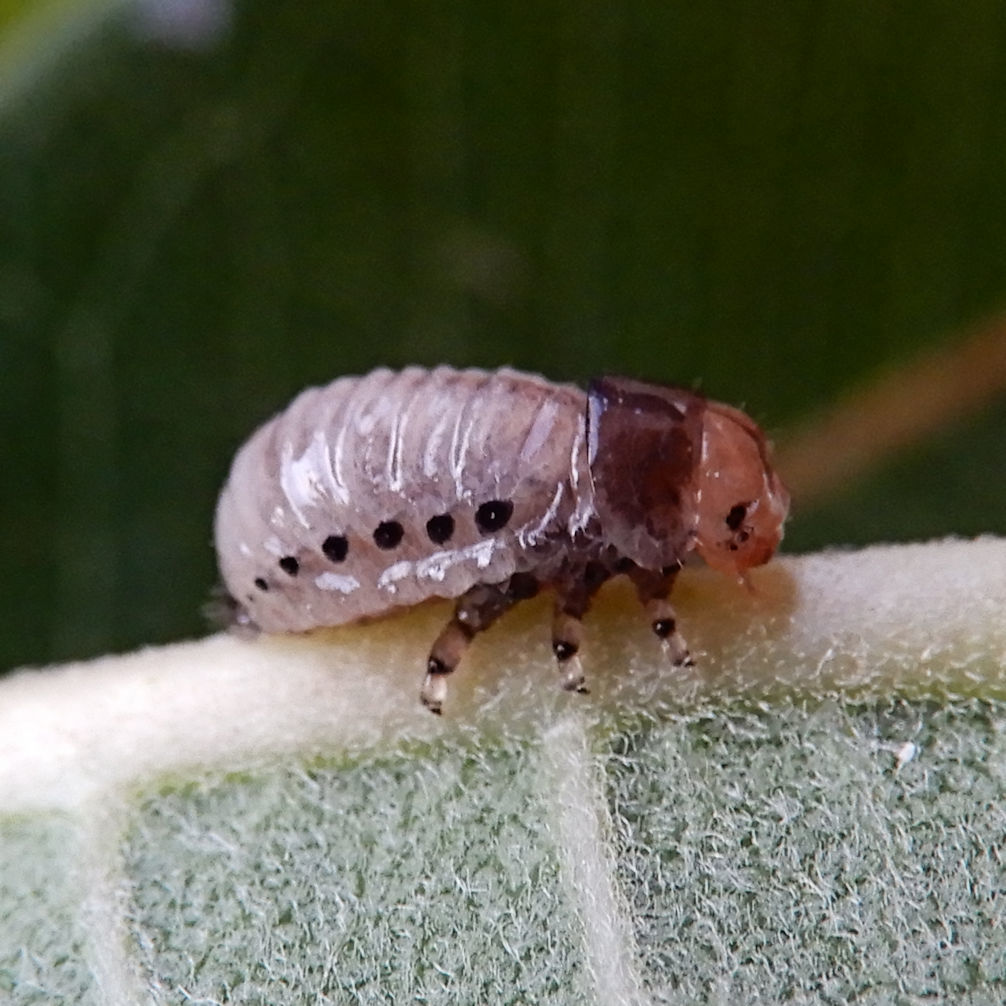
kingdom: Animalia
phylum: Arthropoda
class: Insecta
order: Coleoptera
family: Chrysomelidae
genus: Labidomera
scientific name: Labidomera clivicollis
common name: Swamp milkweed leaf beetle
